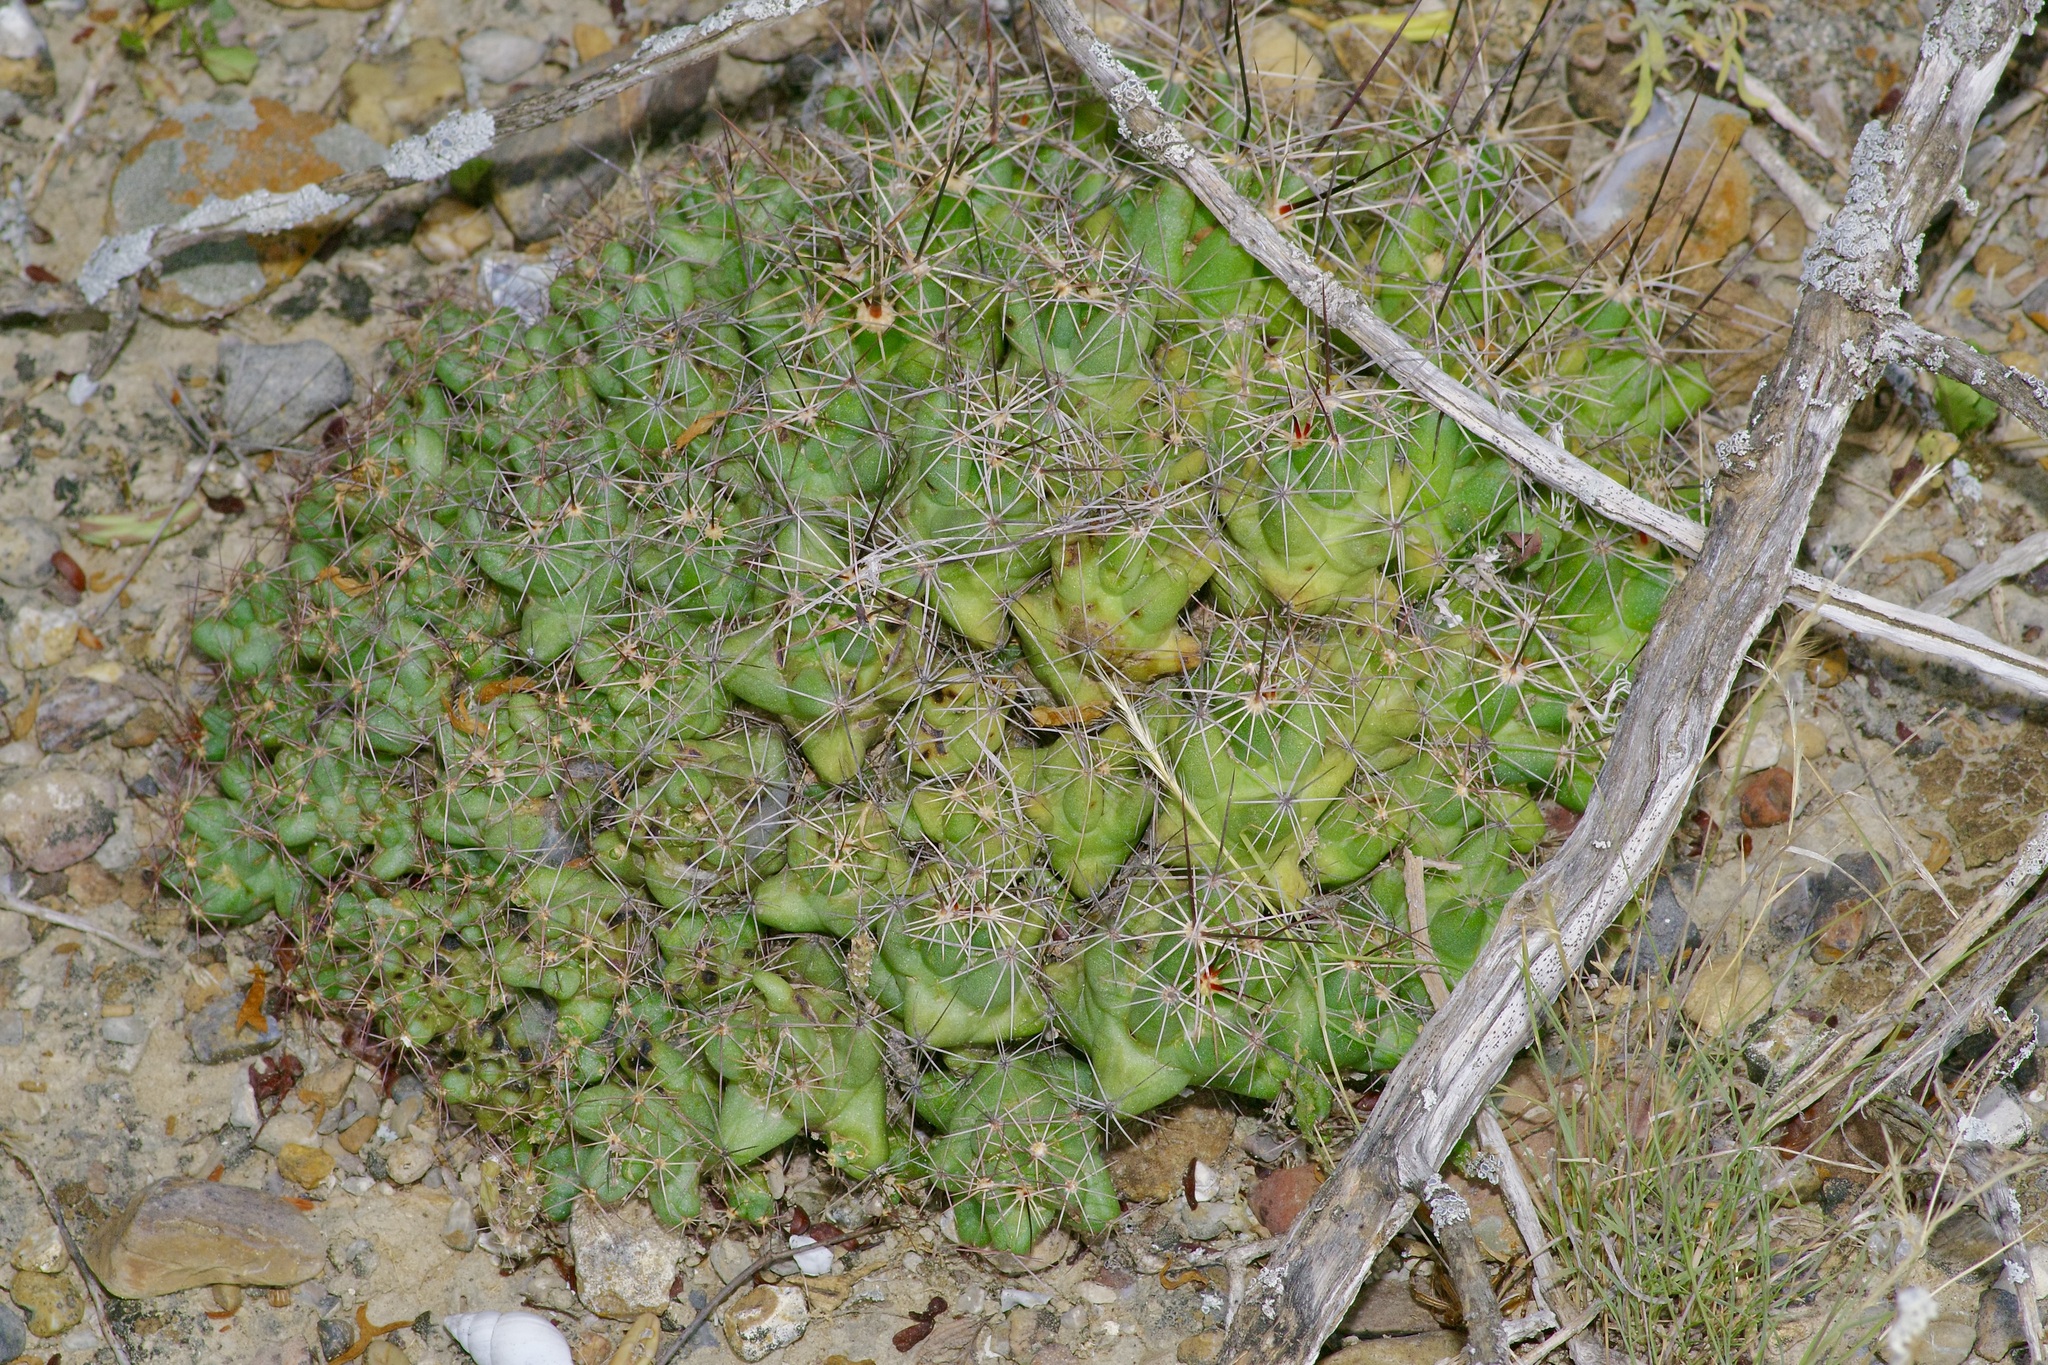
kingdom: Plantae
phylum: Tracheophyta
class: Magnoliopsida
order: Caryophyllales
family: Cactaceae
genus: Pelecyphora
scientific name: Pelecyphora macromeris
